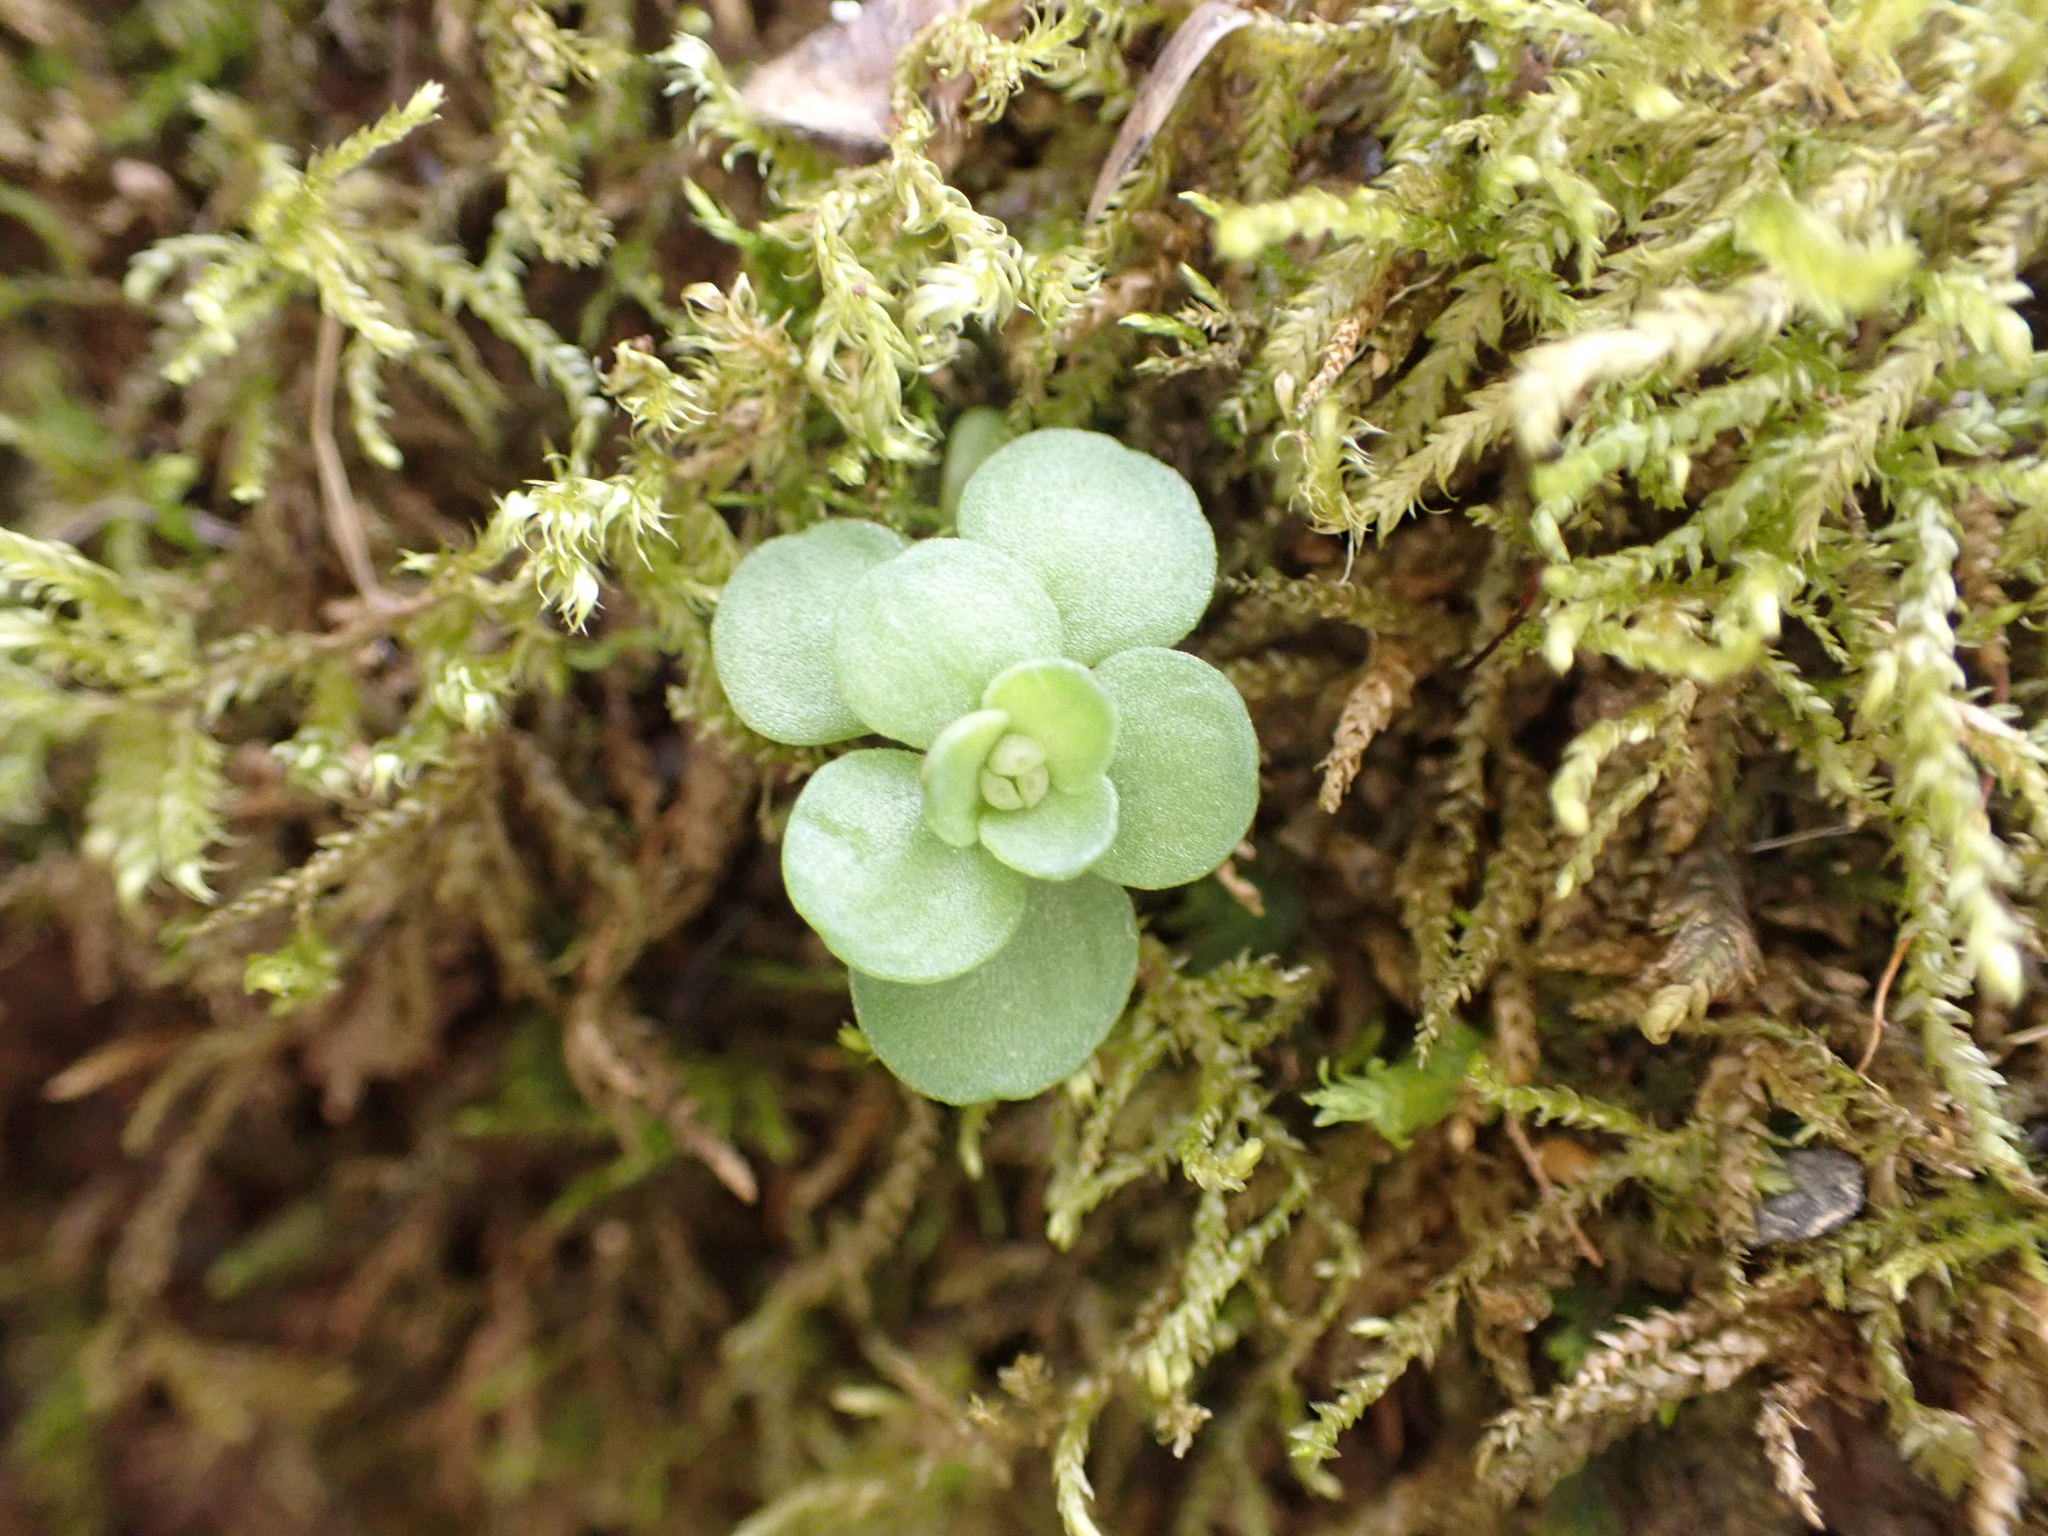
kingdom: Plantae
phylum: Tracheophyta
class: Magnoliopsida
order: Saxifragales
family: Crassulaceae
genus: Sedum
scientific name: Sedum ternatum
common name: Wild stonecrop
